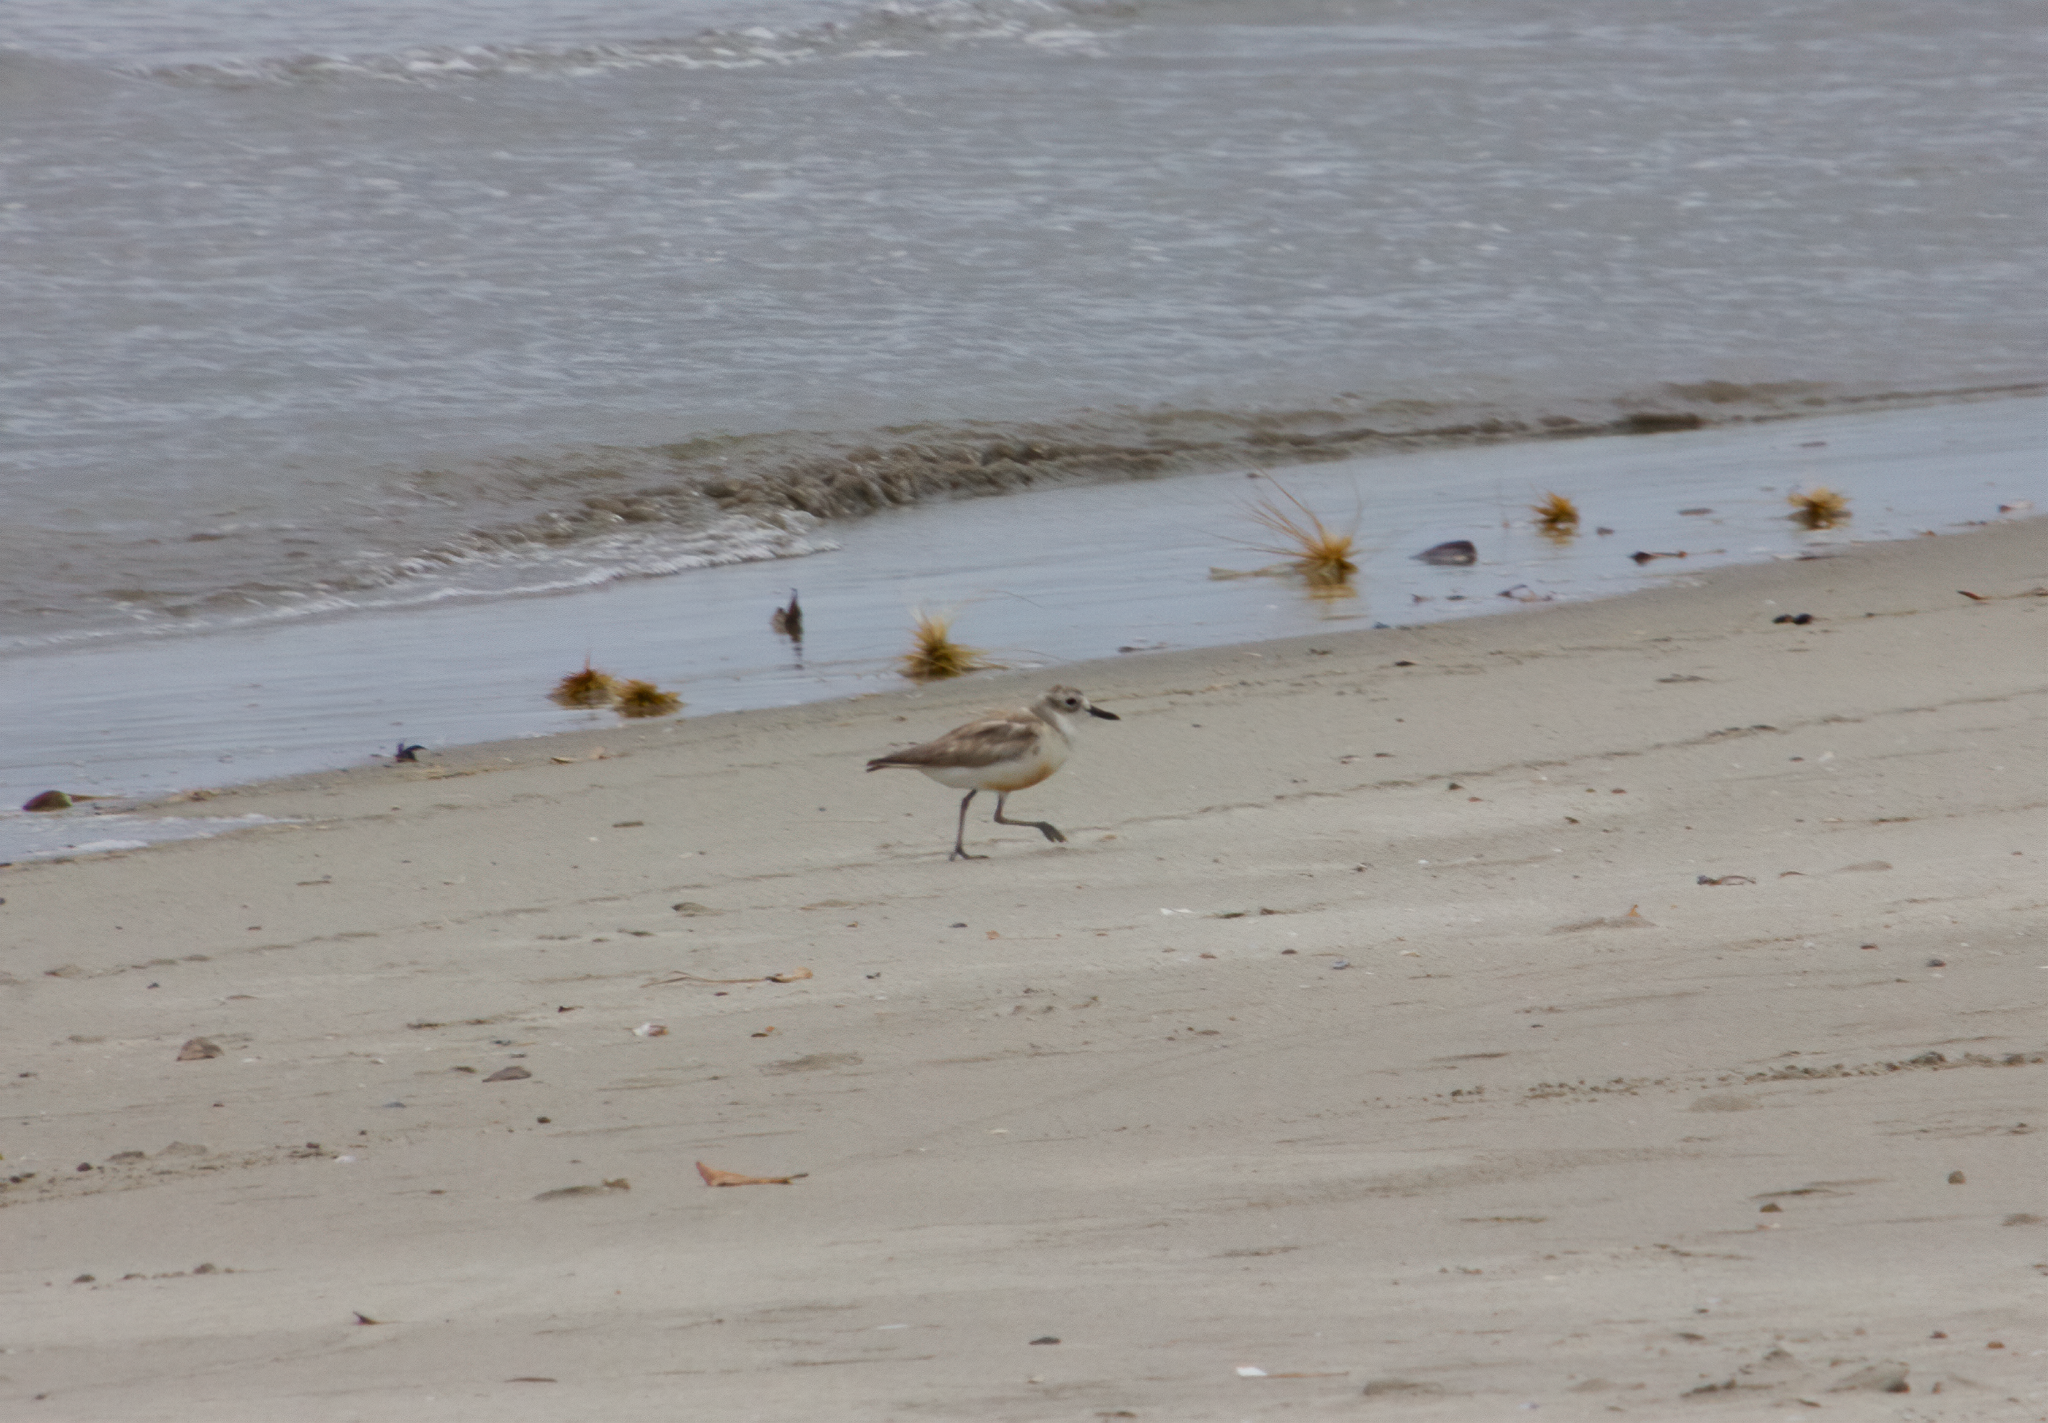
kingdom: Animalia
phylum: Chordata
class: Aves
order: Charadriiformes
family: Charadriidae
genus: Anarhynchus
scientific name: Anarhynchus
